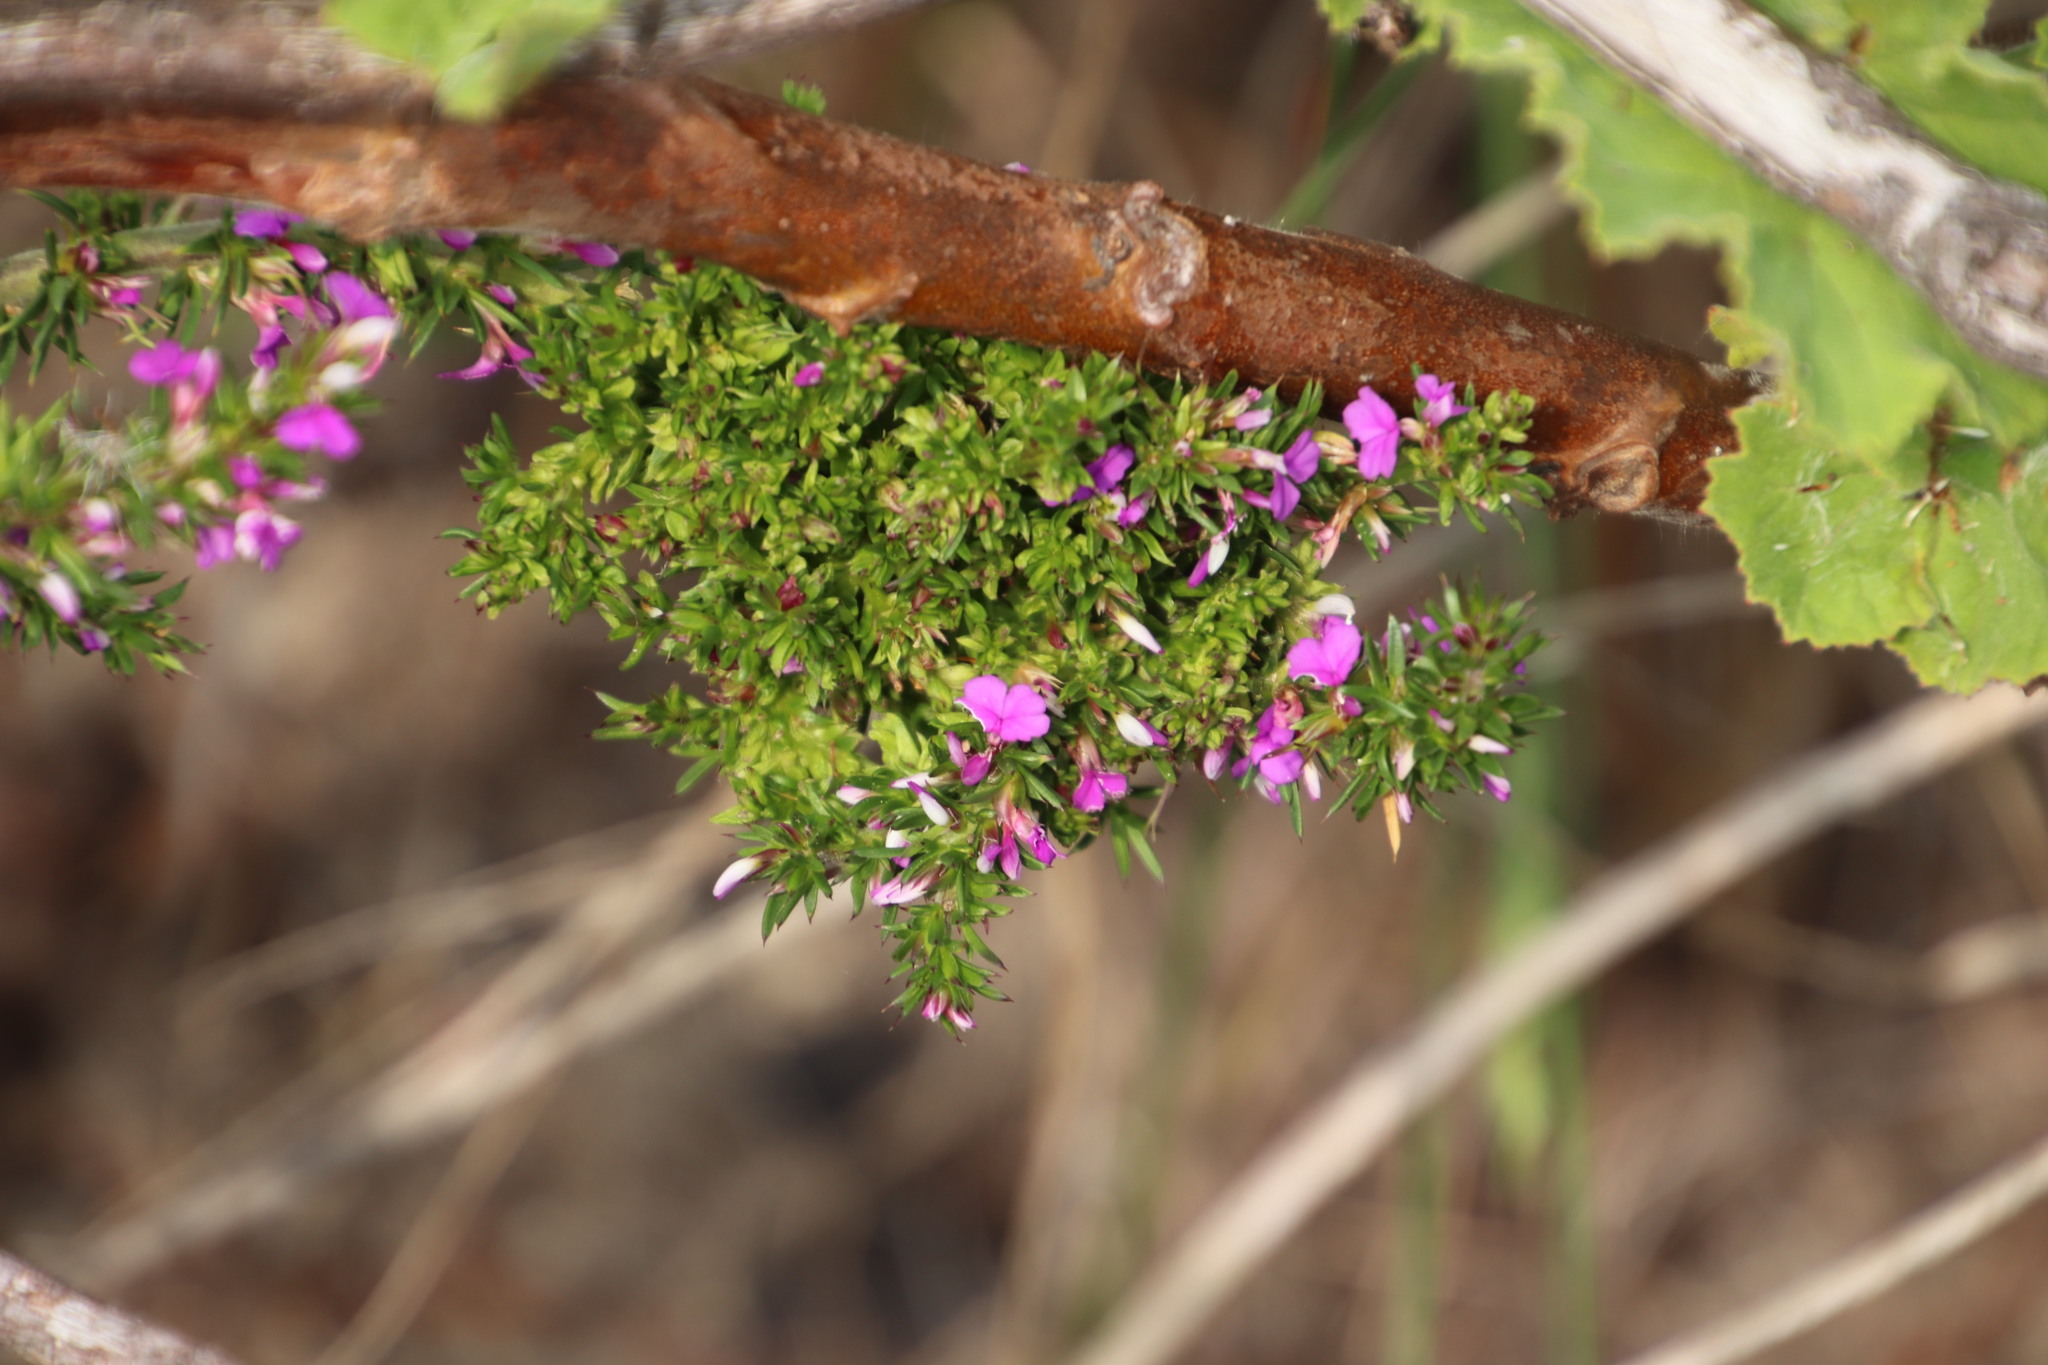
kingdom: Plantae
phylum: Tracheophyta
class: Magnoliopsida
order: Fabales
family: Polygalaceae
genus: Muraltia
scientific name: Muraltia heisteria
